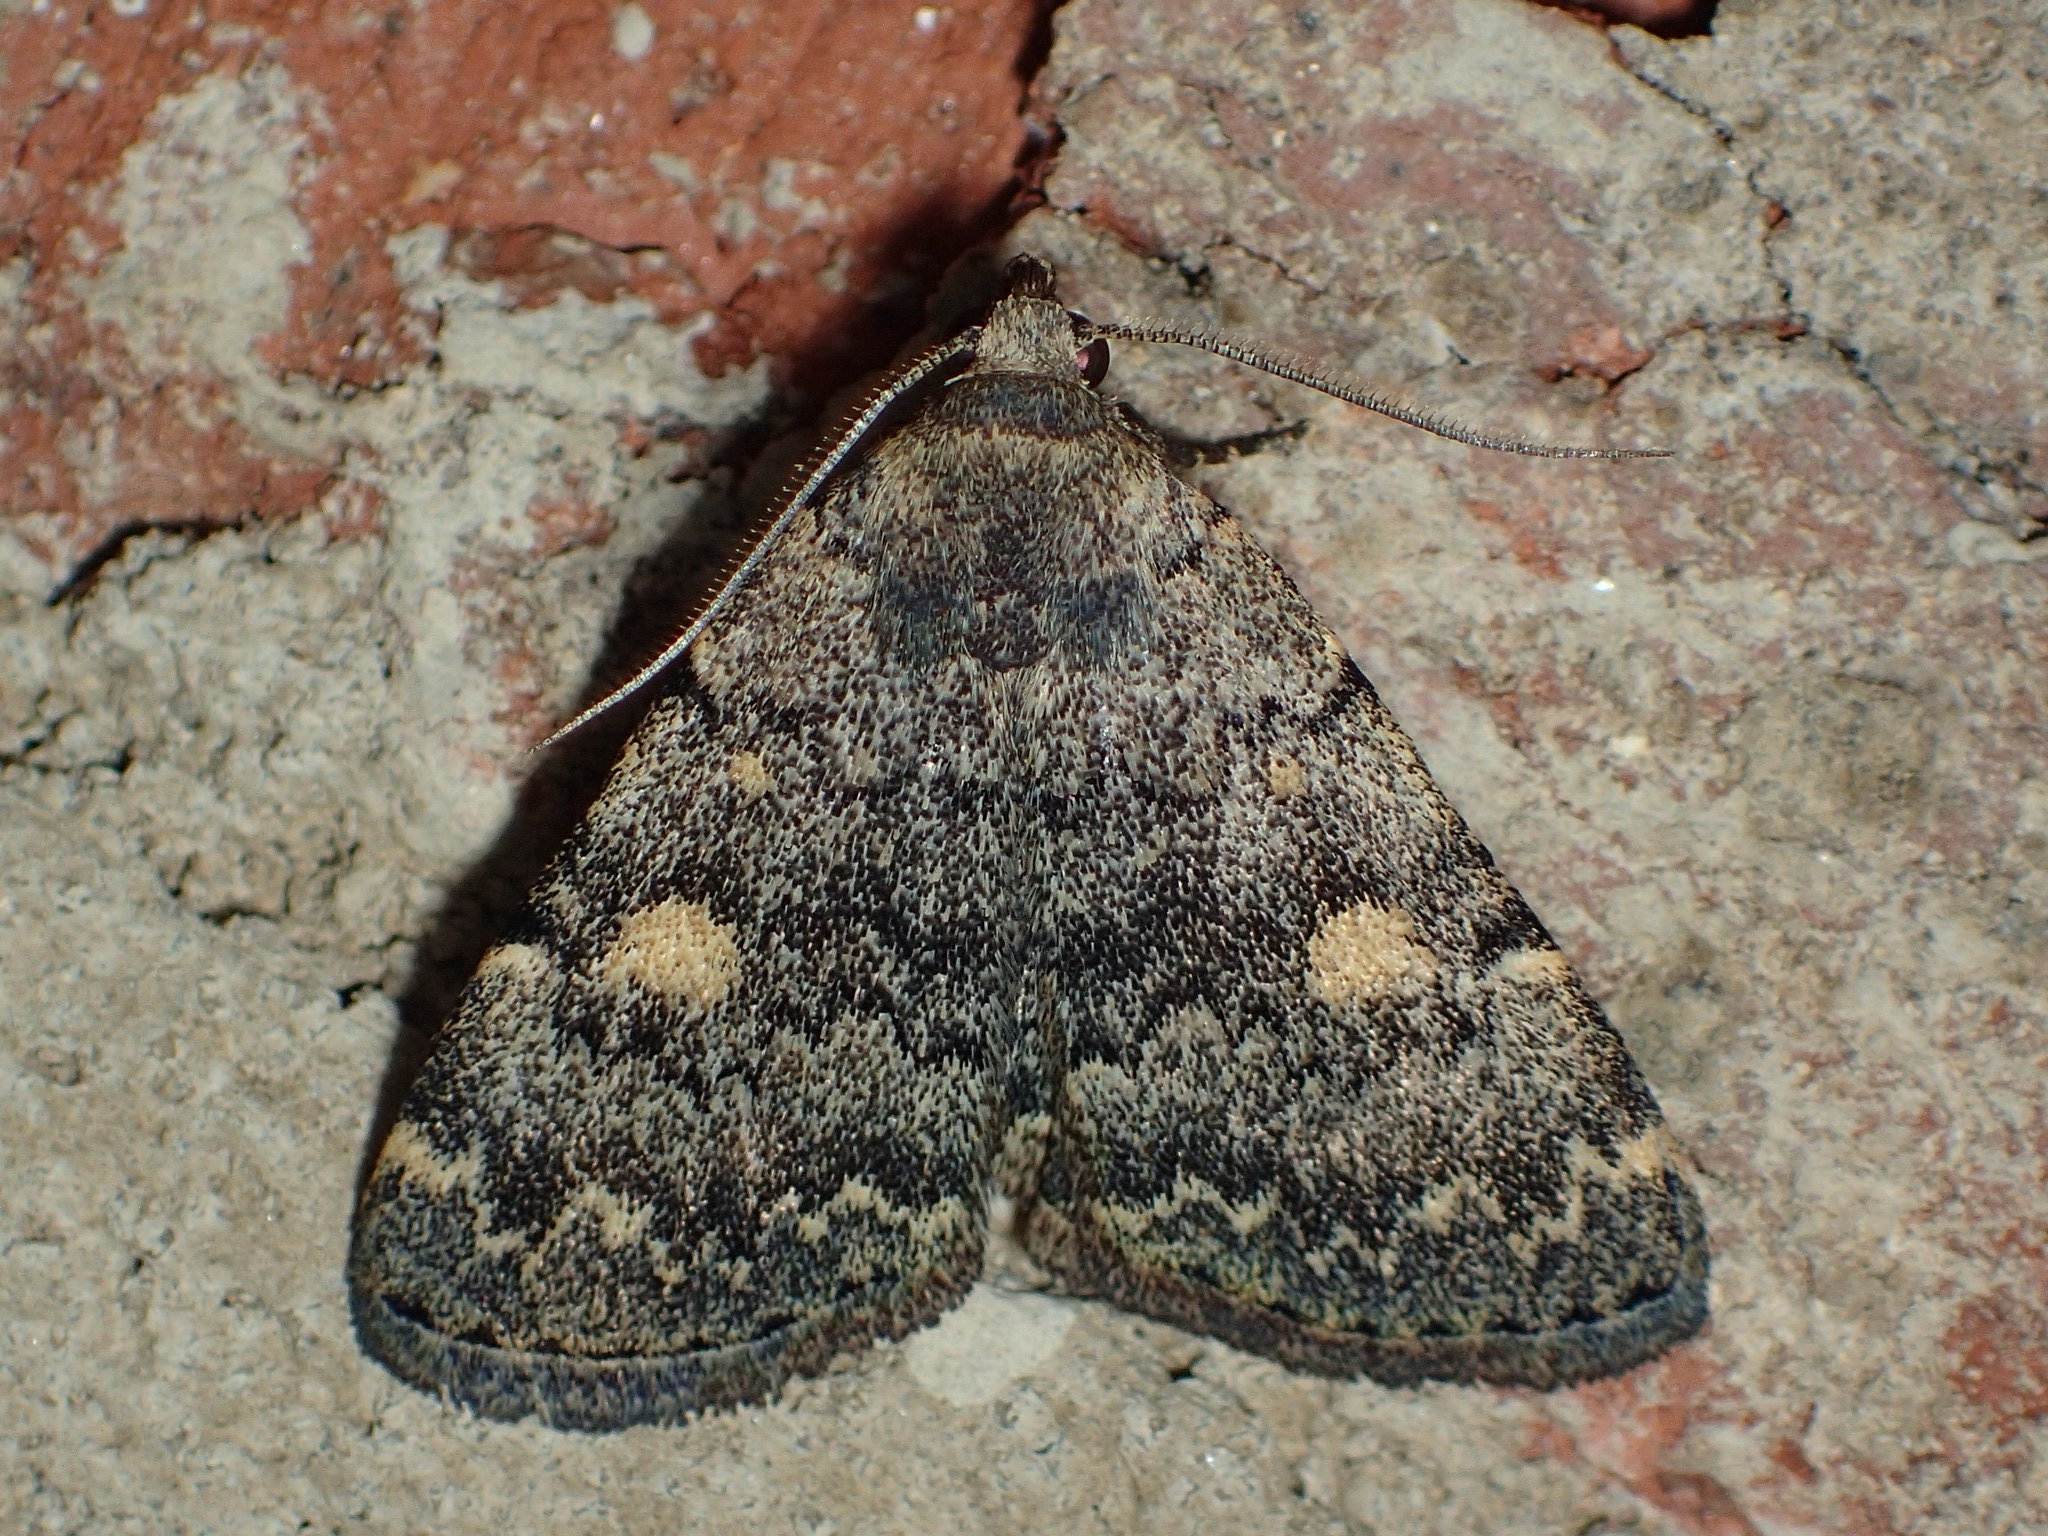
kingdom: Animalia
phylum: Arthropoda
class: Insecta
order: Lepidoptera
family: Erebidae
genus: Idia
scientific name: Idia aemula
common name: Common idia moth
